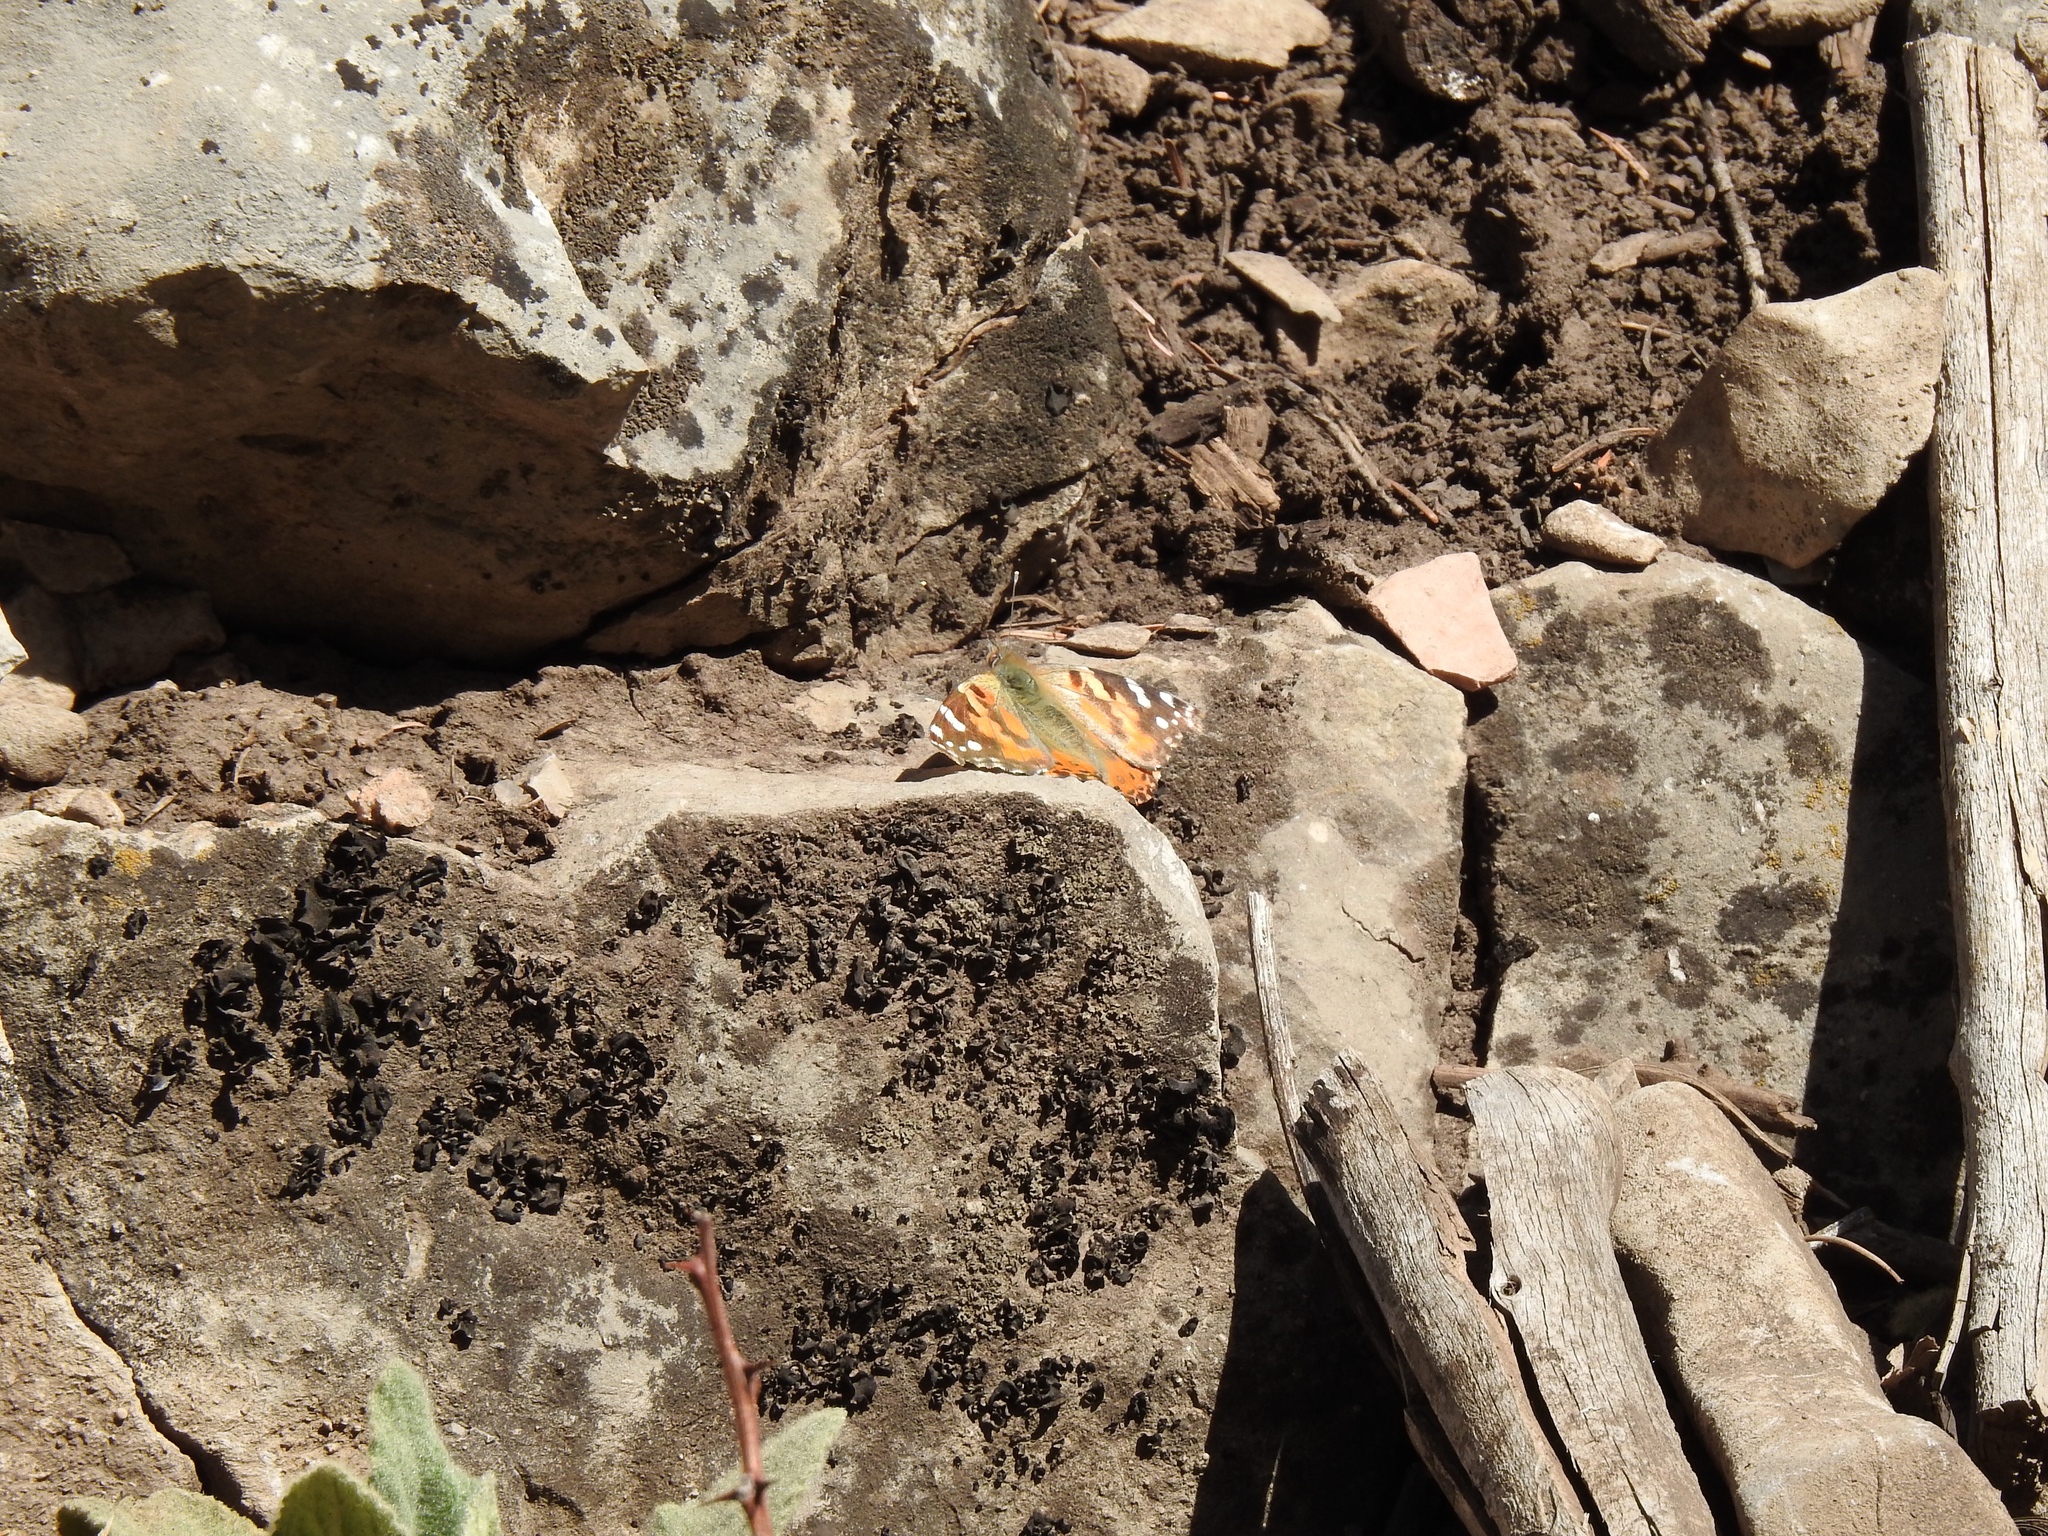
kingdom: Animalia
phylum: Arthropoda
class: Insecta
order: Lepidoptera
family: Nymphalidae
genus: Vanessa
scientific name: Vanessa cardui
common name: Painted lady
